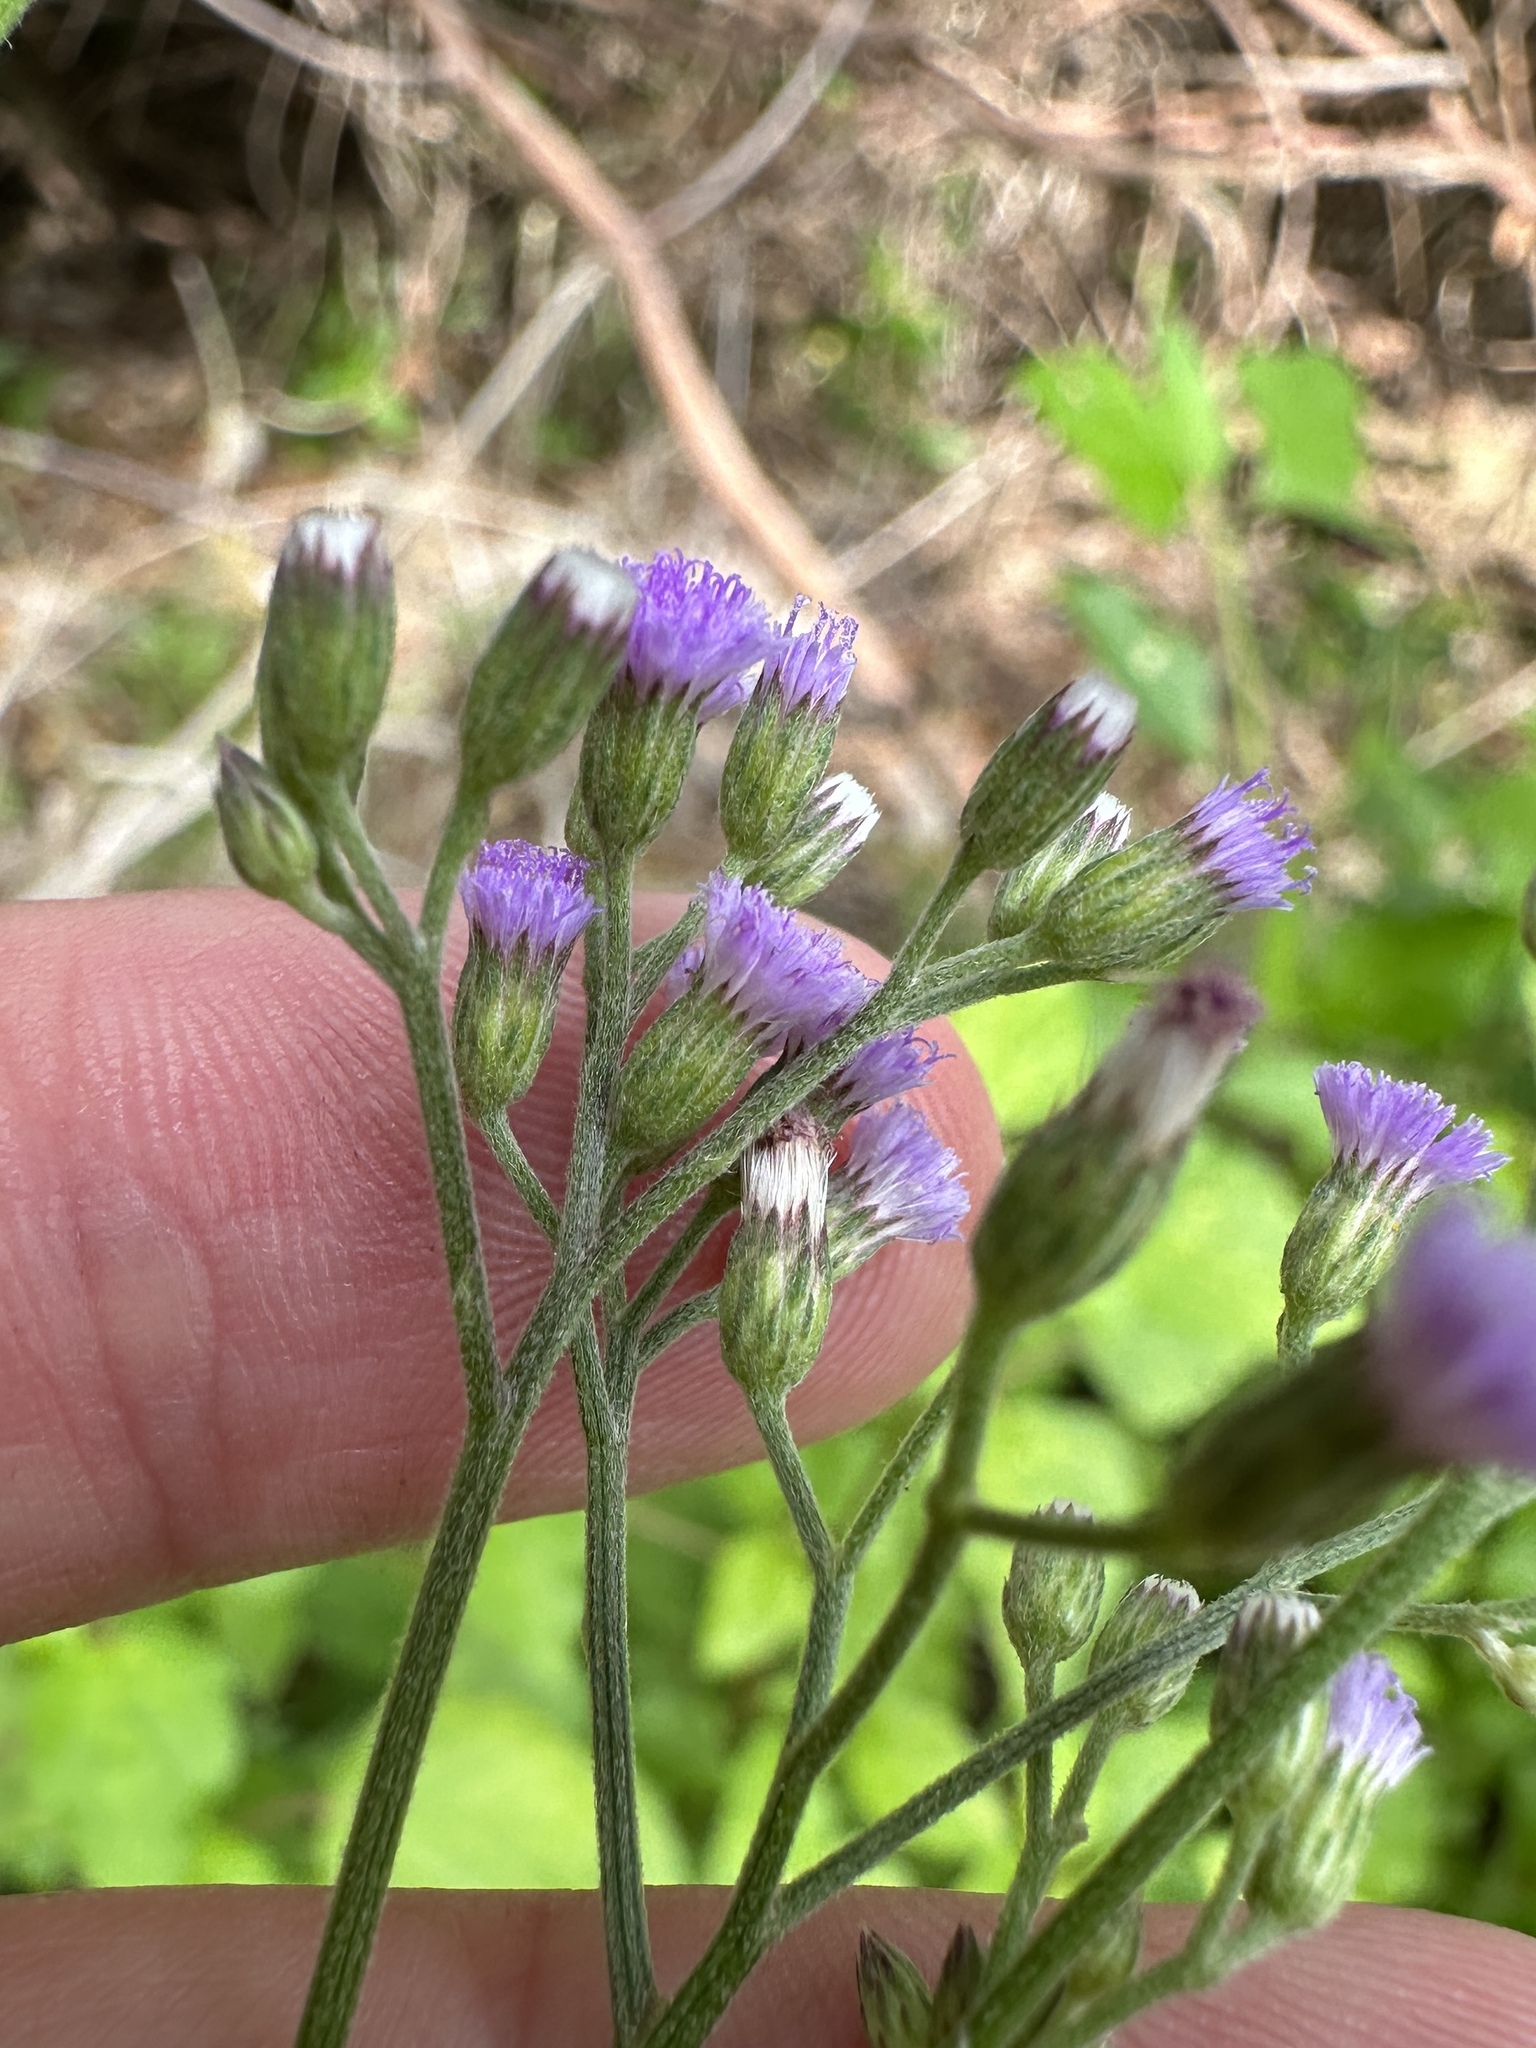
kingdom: Plantae
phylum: Tracheophyta
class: Magnoliopsida
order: Asterales
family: Asteraceae
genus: Cyanthillium
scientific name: Cyanthillium cinereum
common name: Little ironweed
